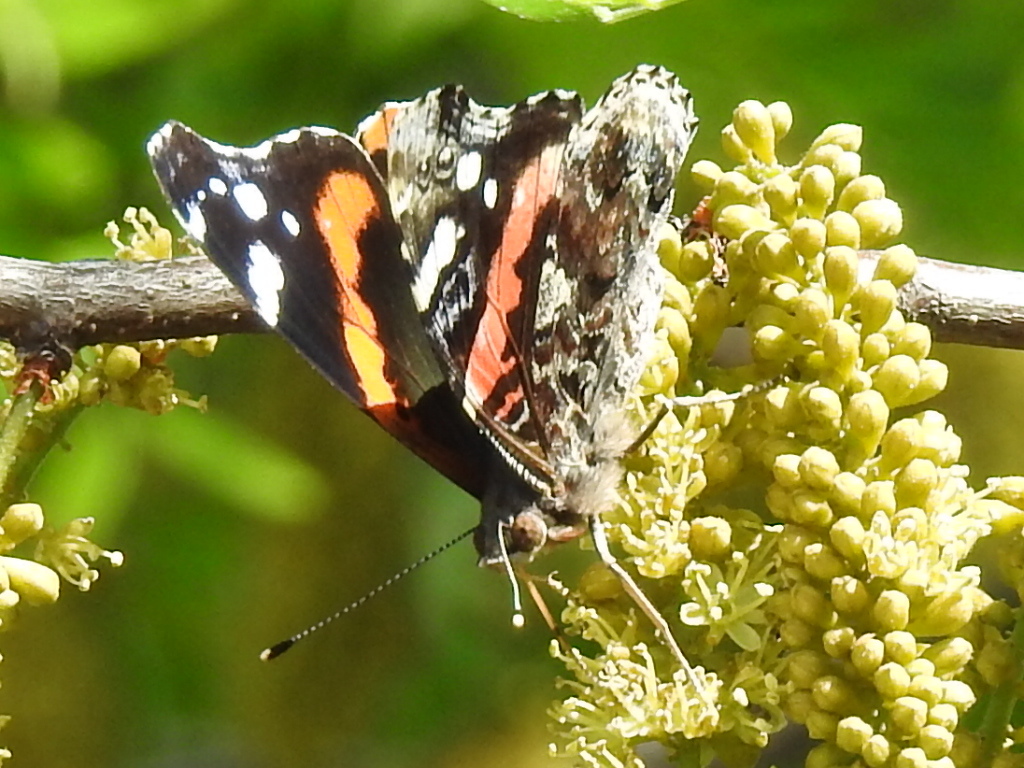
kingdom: Animalia
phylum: Arthropoda
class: Insecta
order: Lepidoptera
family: Nymphalidae
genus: Vanessa
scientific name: Vanessa atalanta
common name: Red admiral
